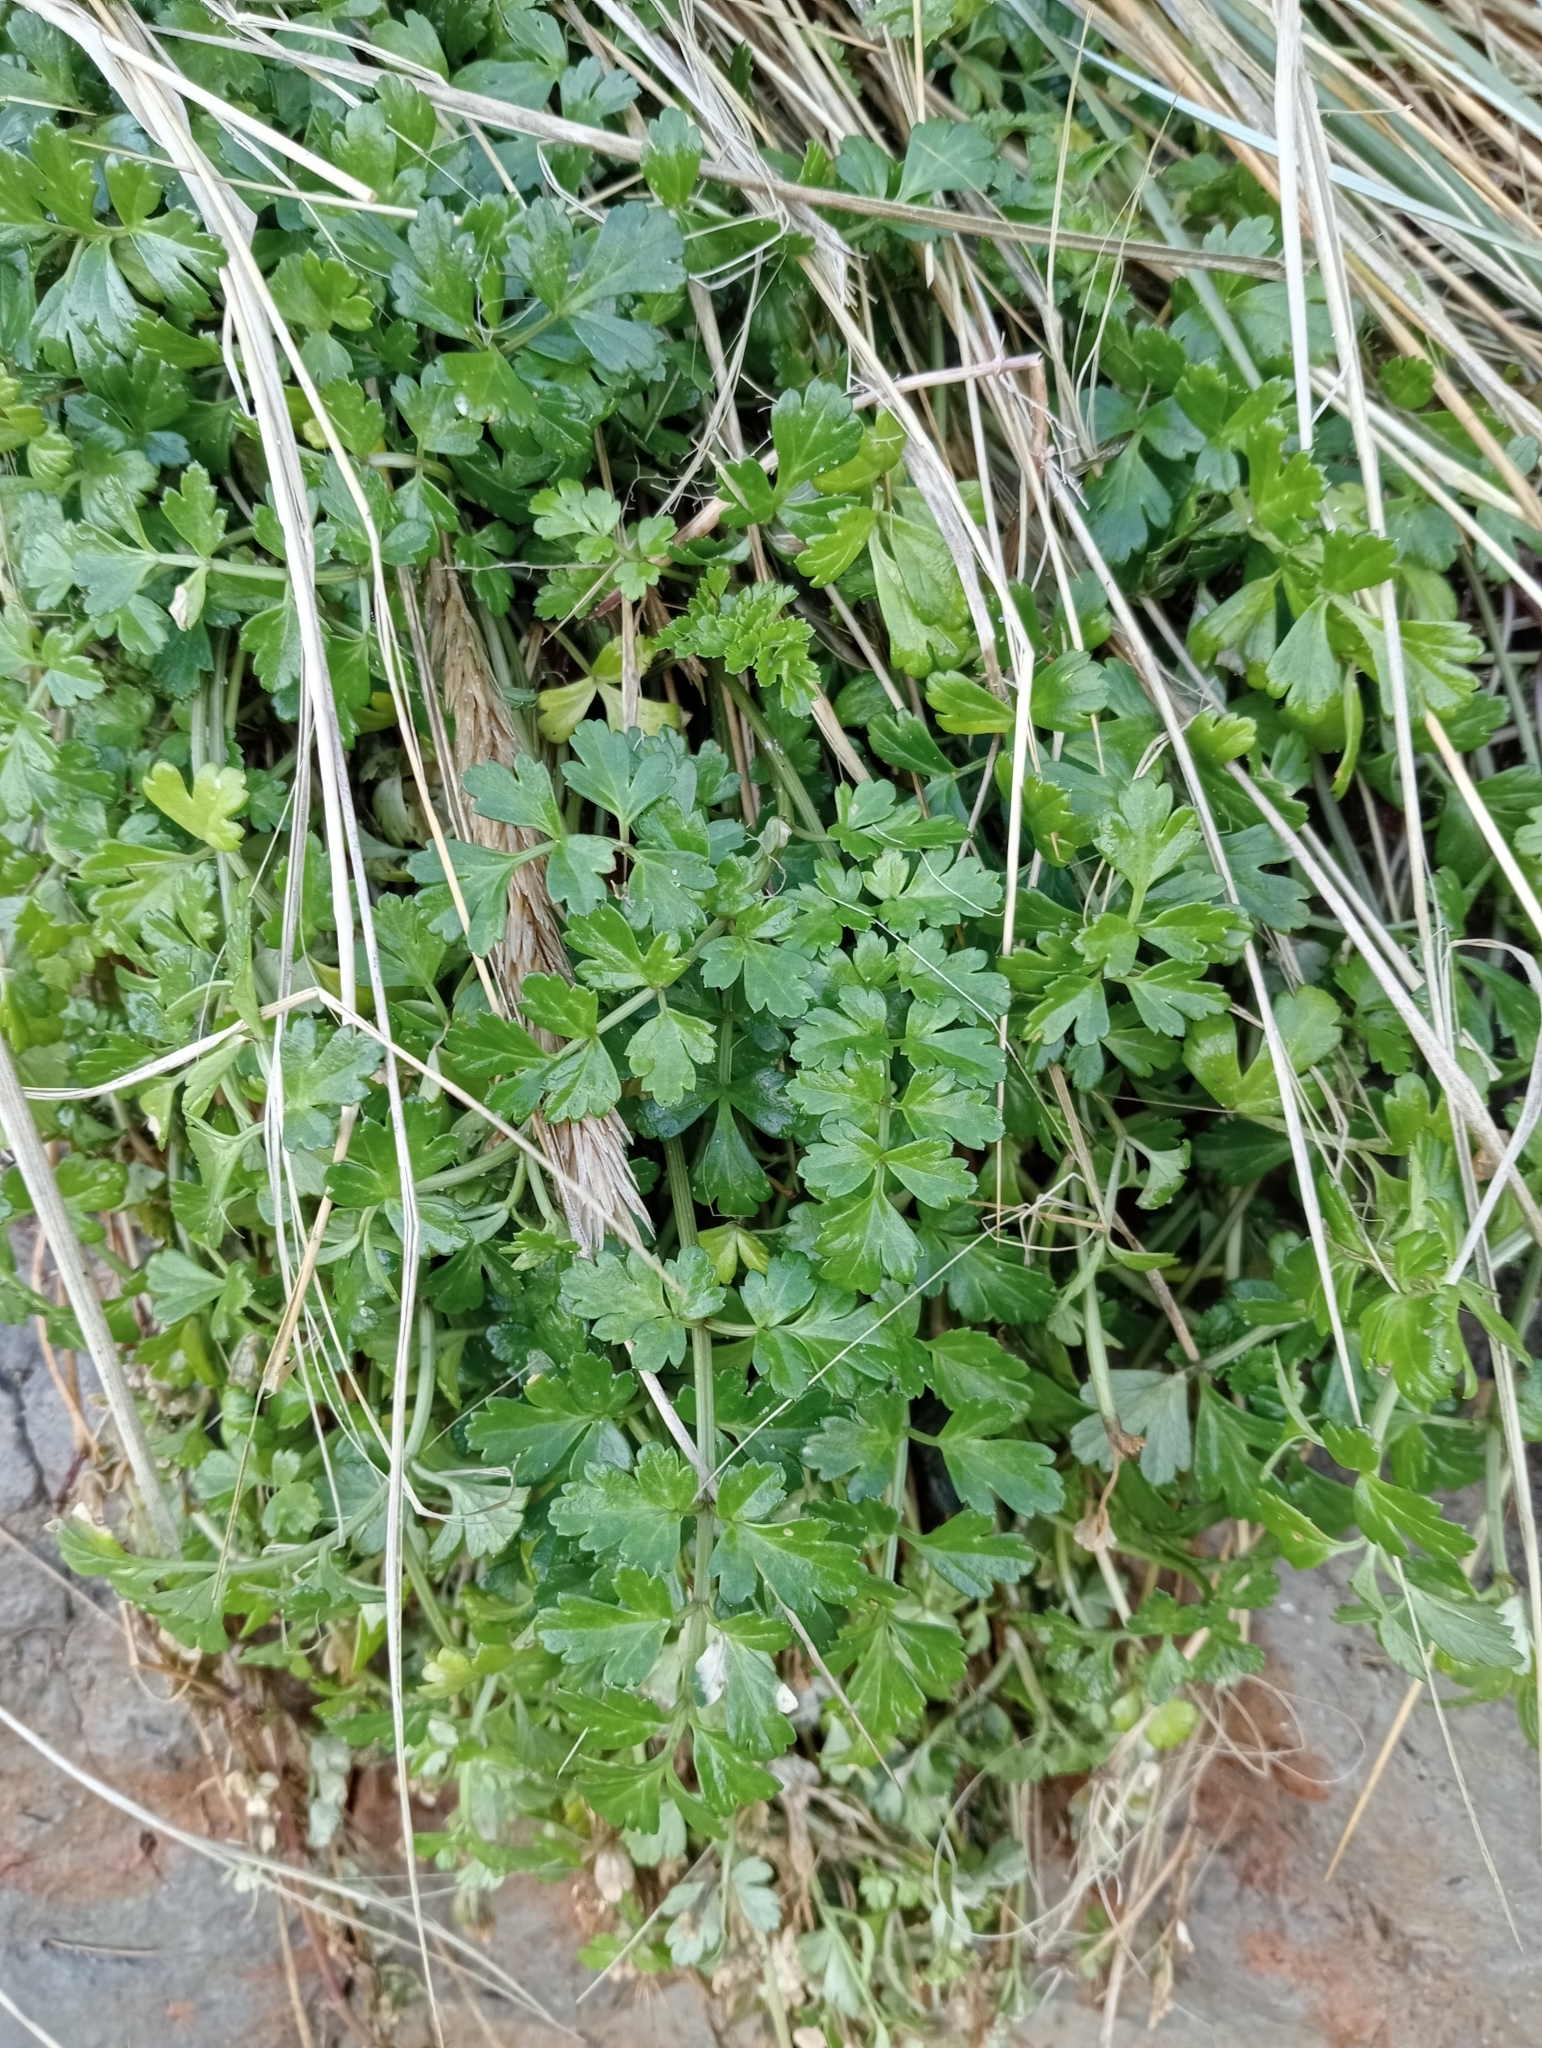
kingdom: Plantae
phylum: Tracheophyta
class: Magnoliopsida
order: Apiales
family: Apiaceae
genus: Apium
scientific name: Apium prostratum
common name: Prostrate marshwort
